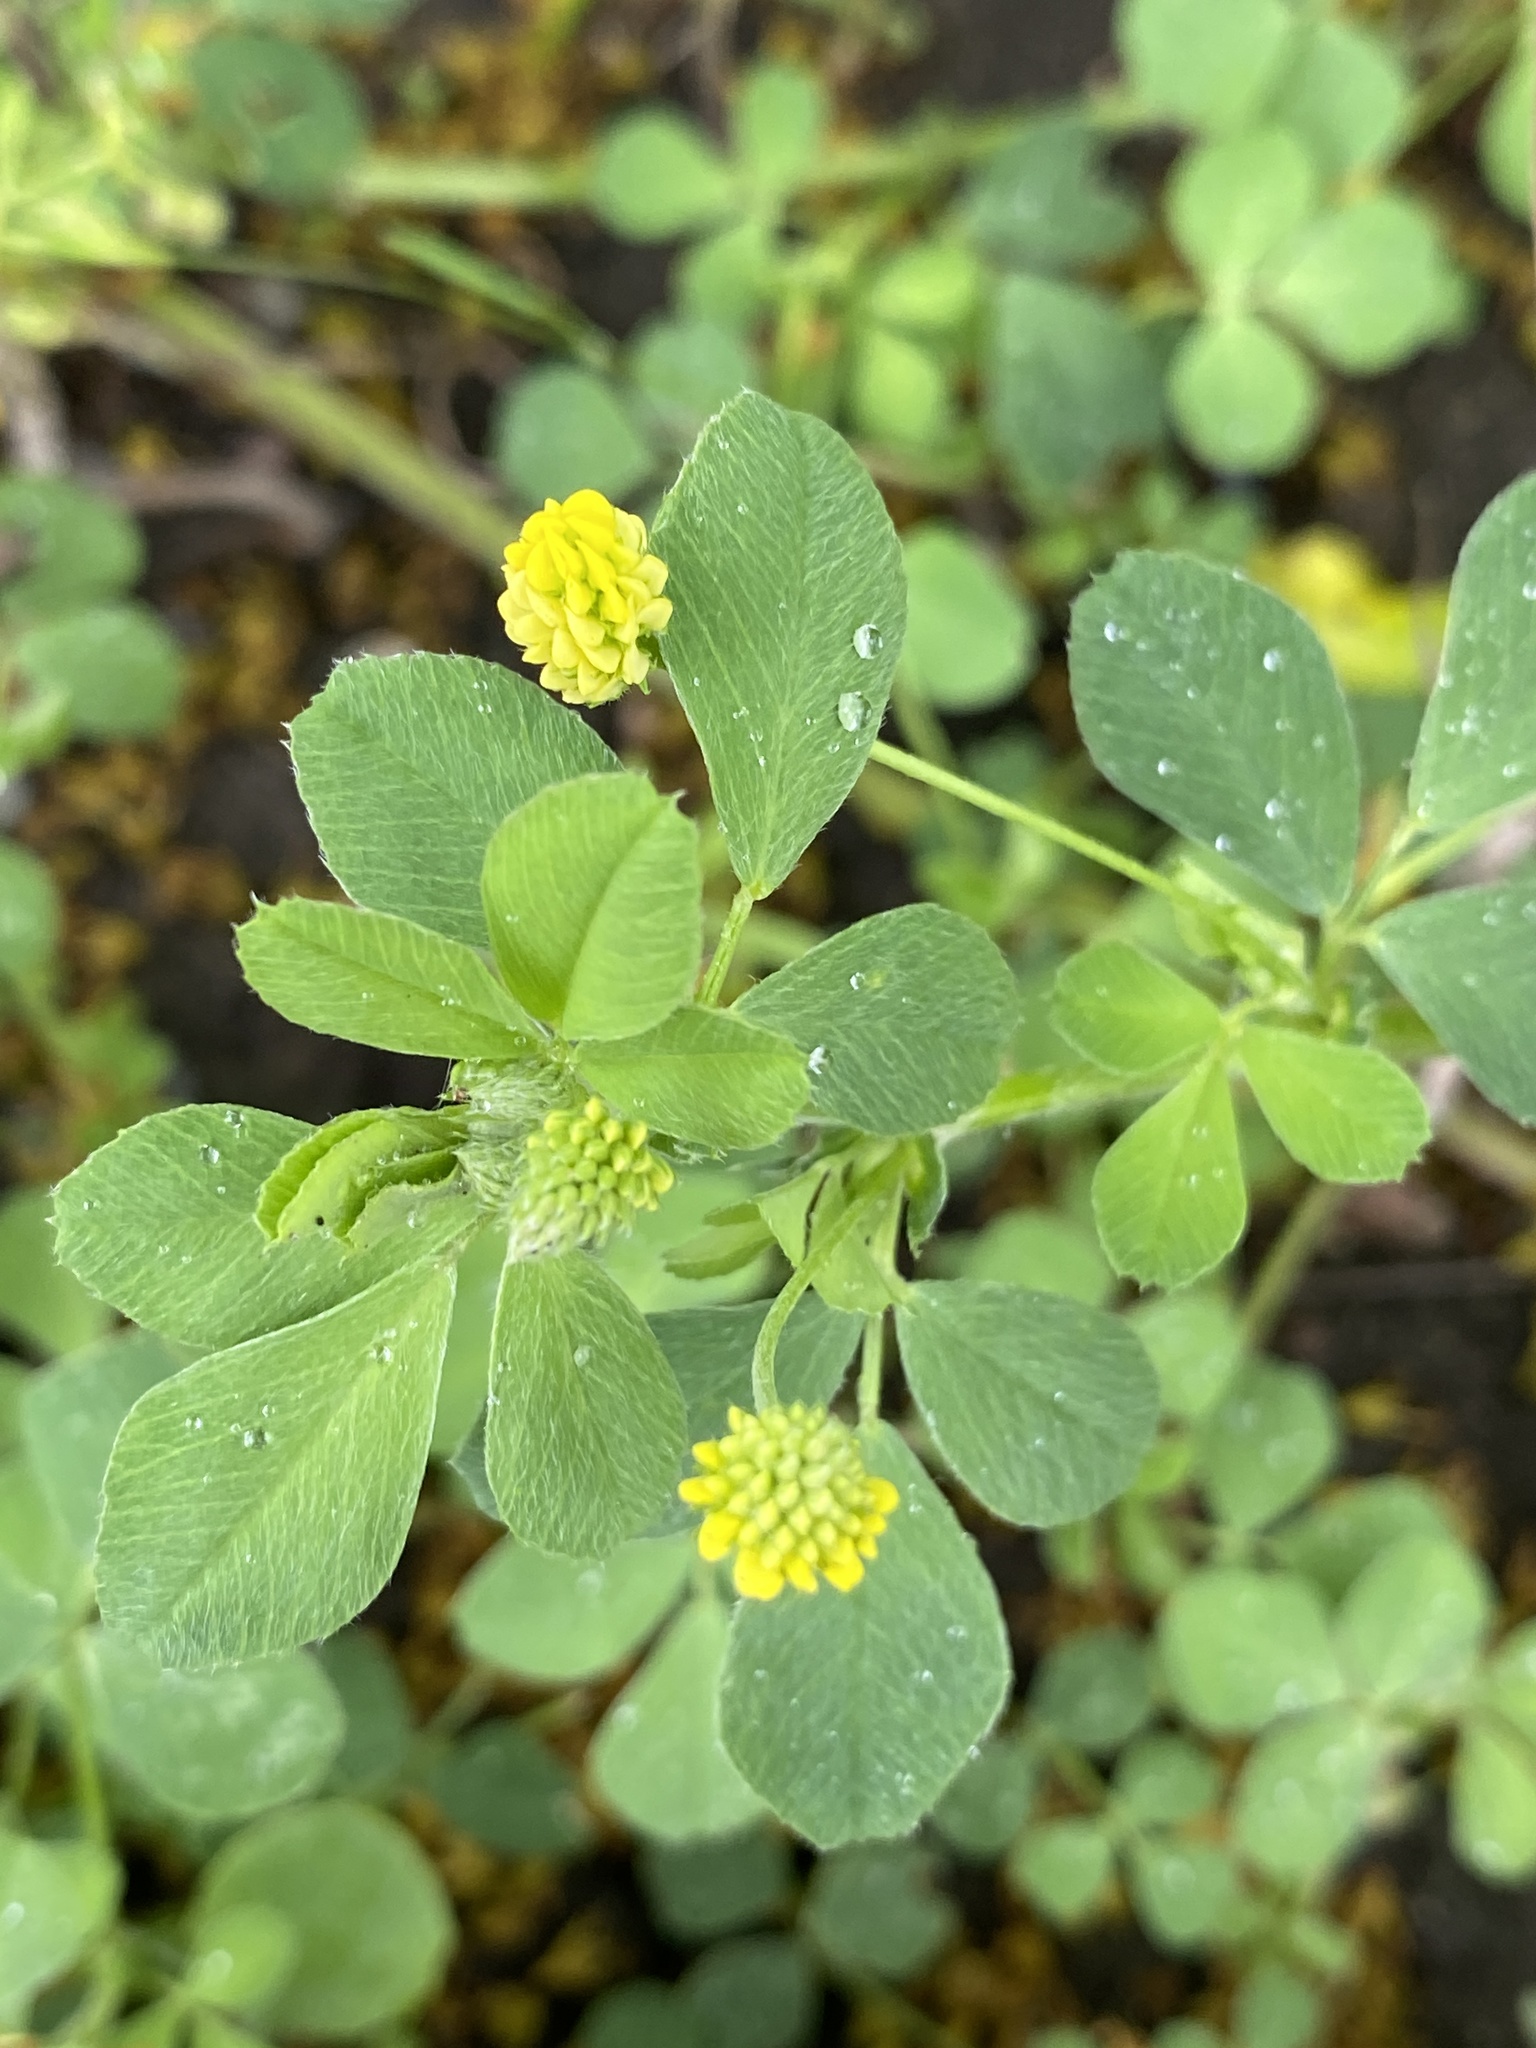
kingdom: Plantae
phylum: Tracheophyta
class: Magnoliopsida
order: Fabales
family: Fabaceae
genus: Medicago
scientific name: Medicago lupulina
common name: Black medick
